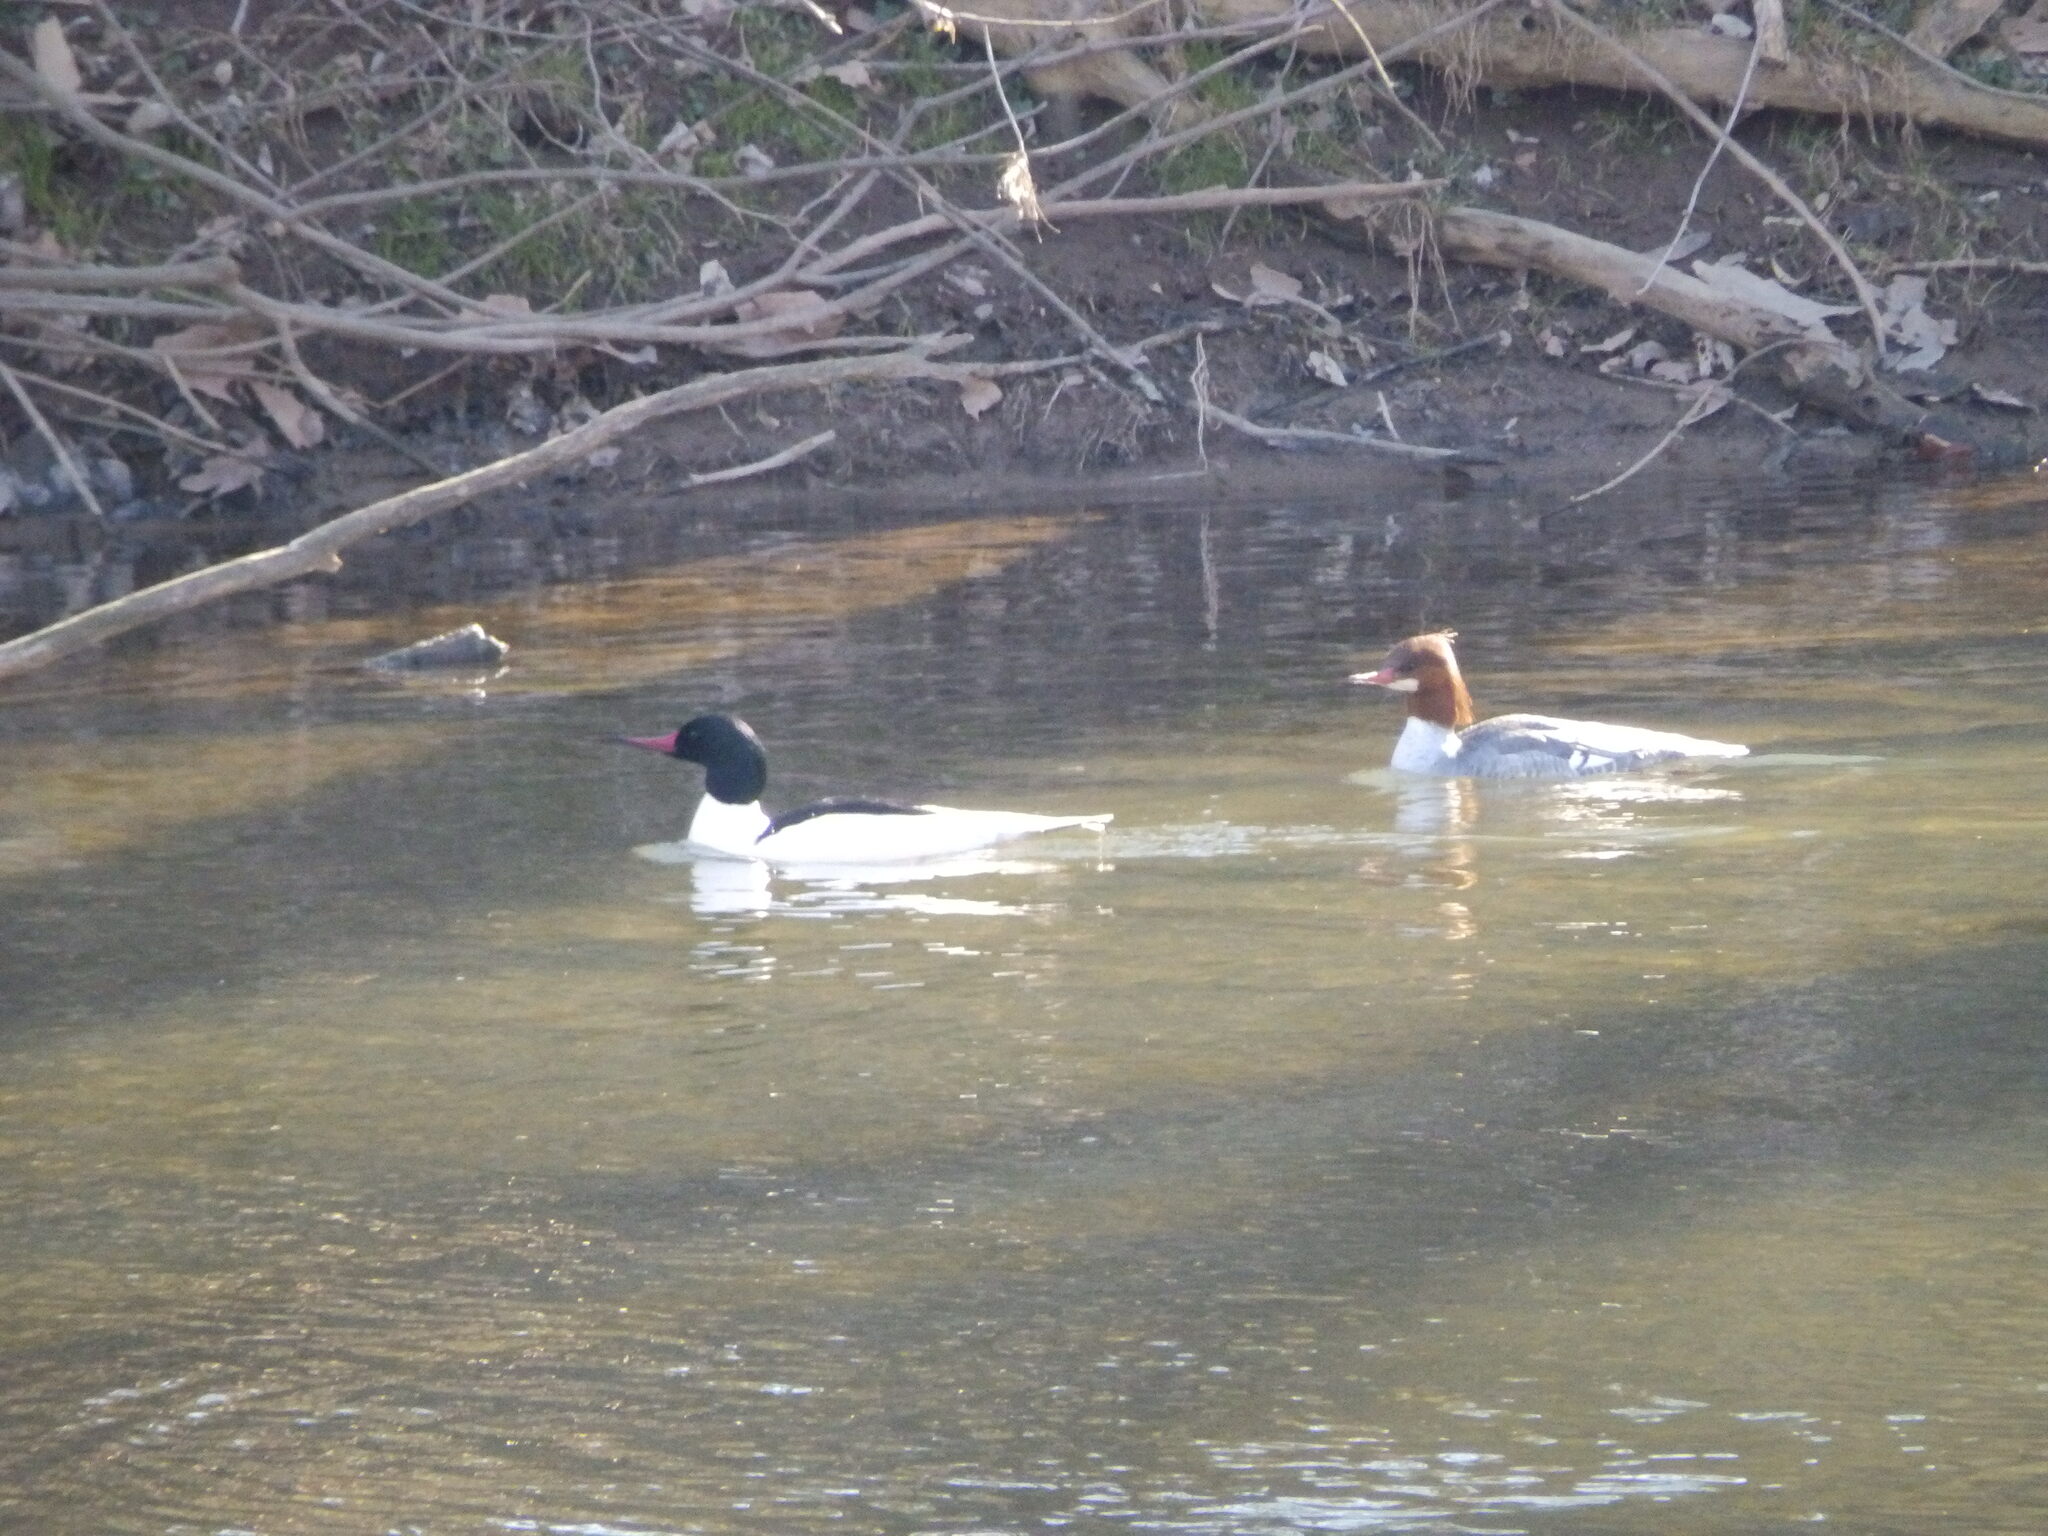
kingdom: Animalia
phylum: Chordata
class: Aves
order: Anseriformes
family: Anatidae
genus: Mergus
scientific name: Mergus merganser
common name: Common merganser
